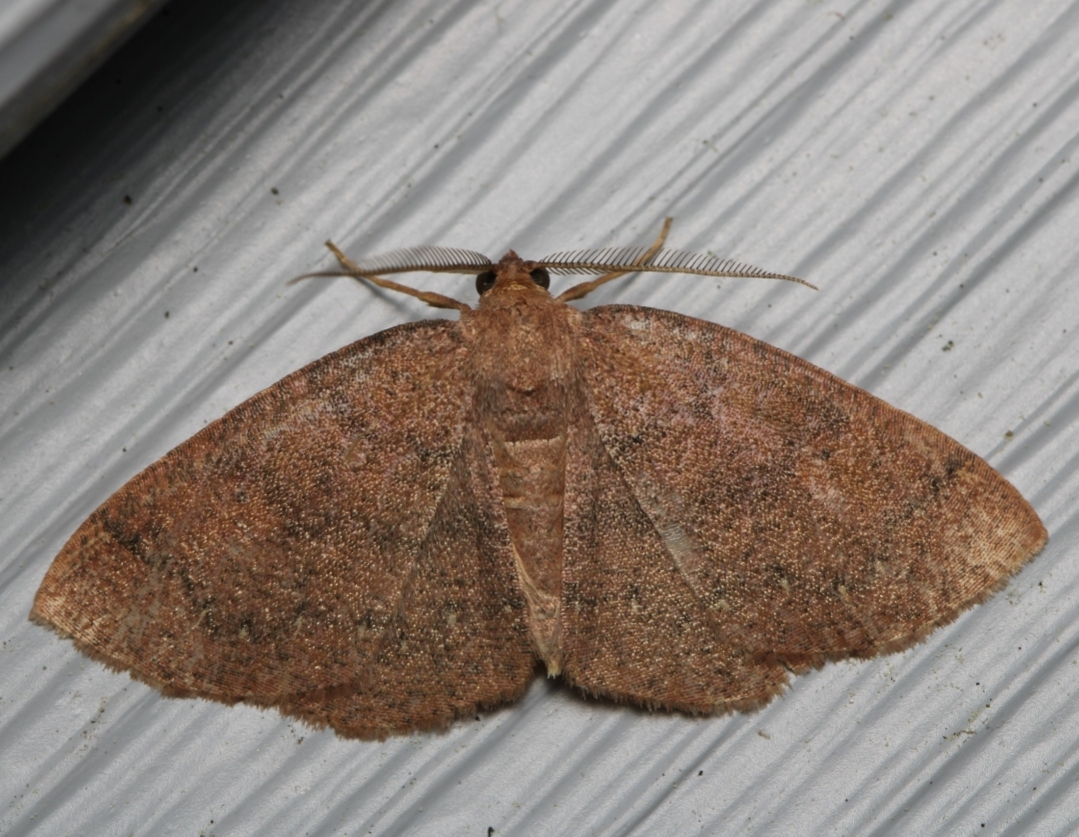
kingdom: Animalia
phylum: Arthropoda
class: Insecta
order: Lepidoptera
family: Geometridae
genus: Ilexia
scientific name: Ilexia intractata
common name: Black-dotted ruddy moth
